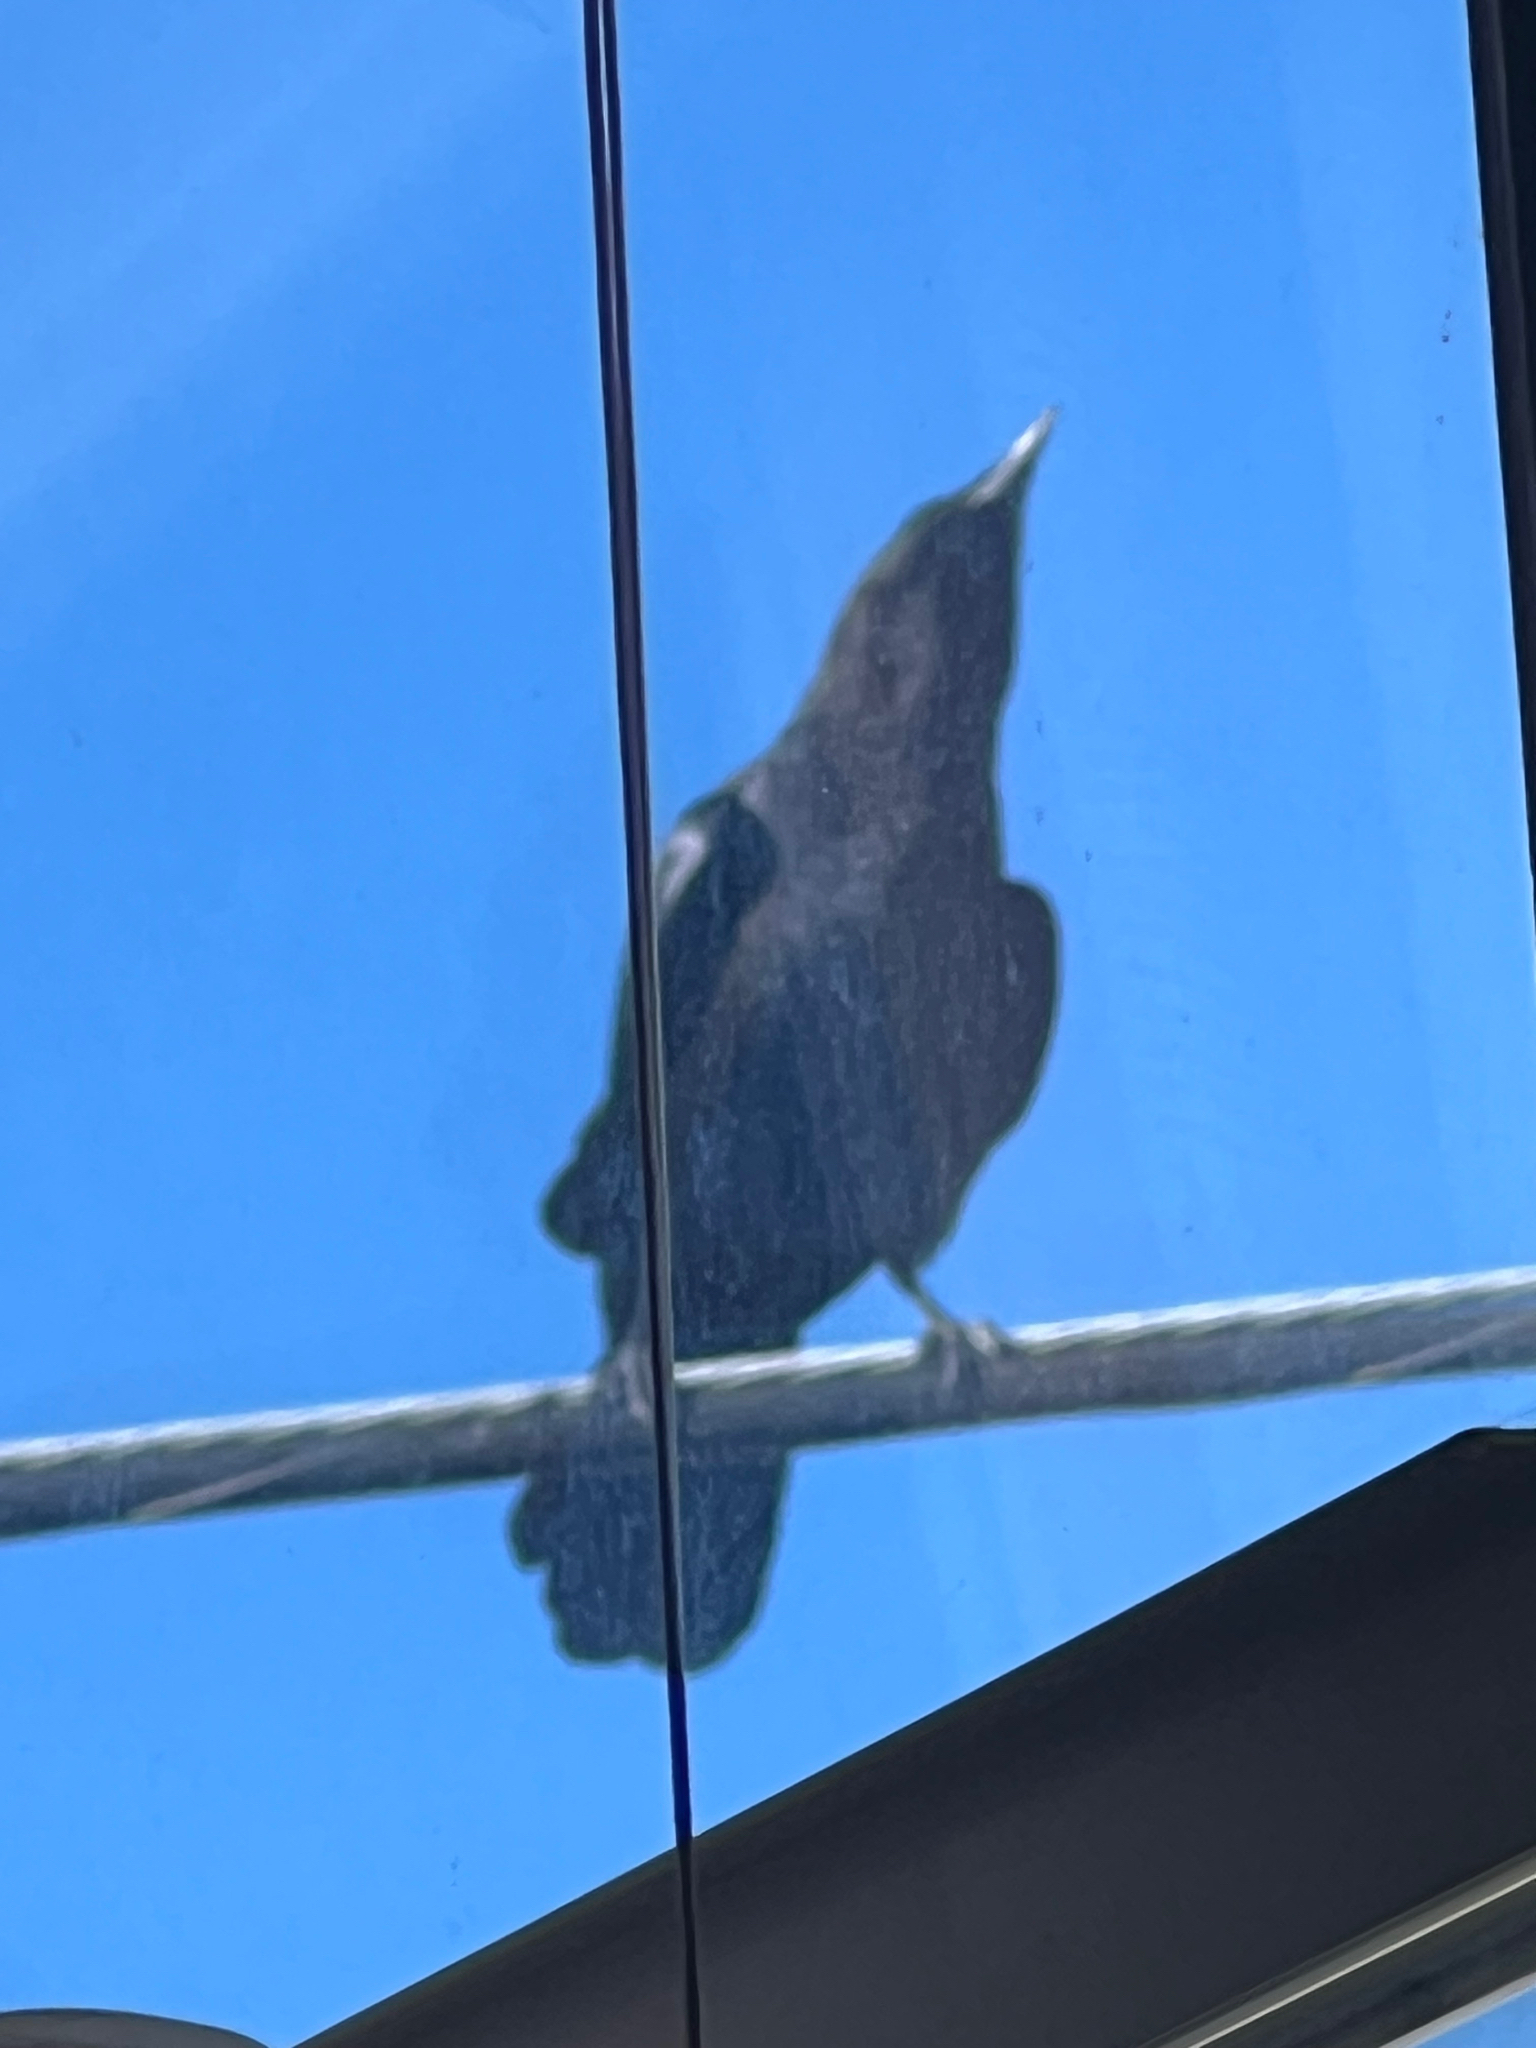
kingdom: Animalia
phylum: Chordata
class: Aves
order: Passeriformes
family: Corvidae
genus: Corvus
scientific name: Corvus brachyrhynchos
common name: American crow
